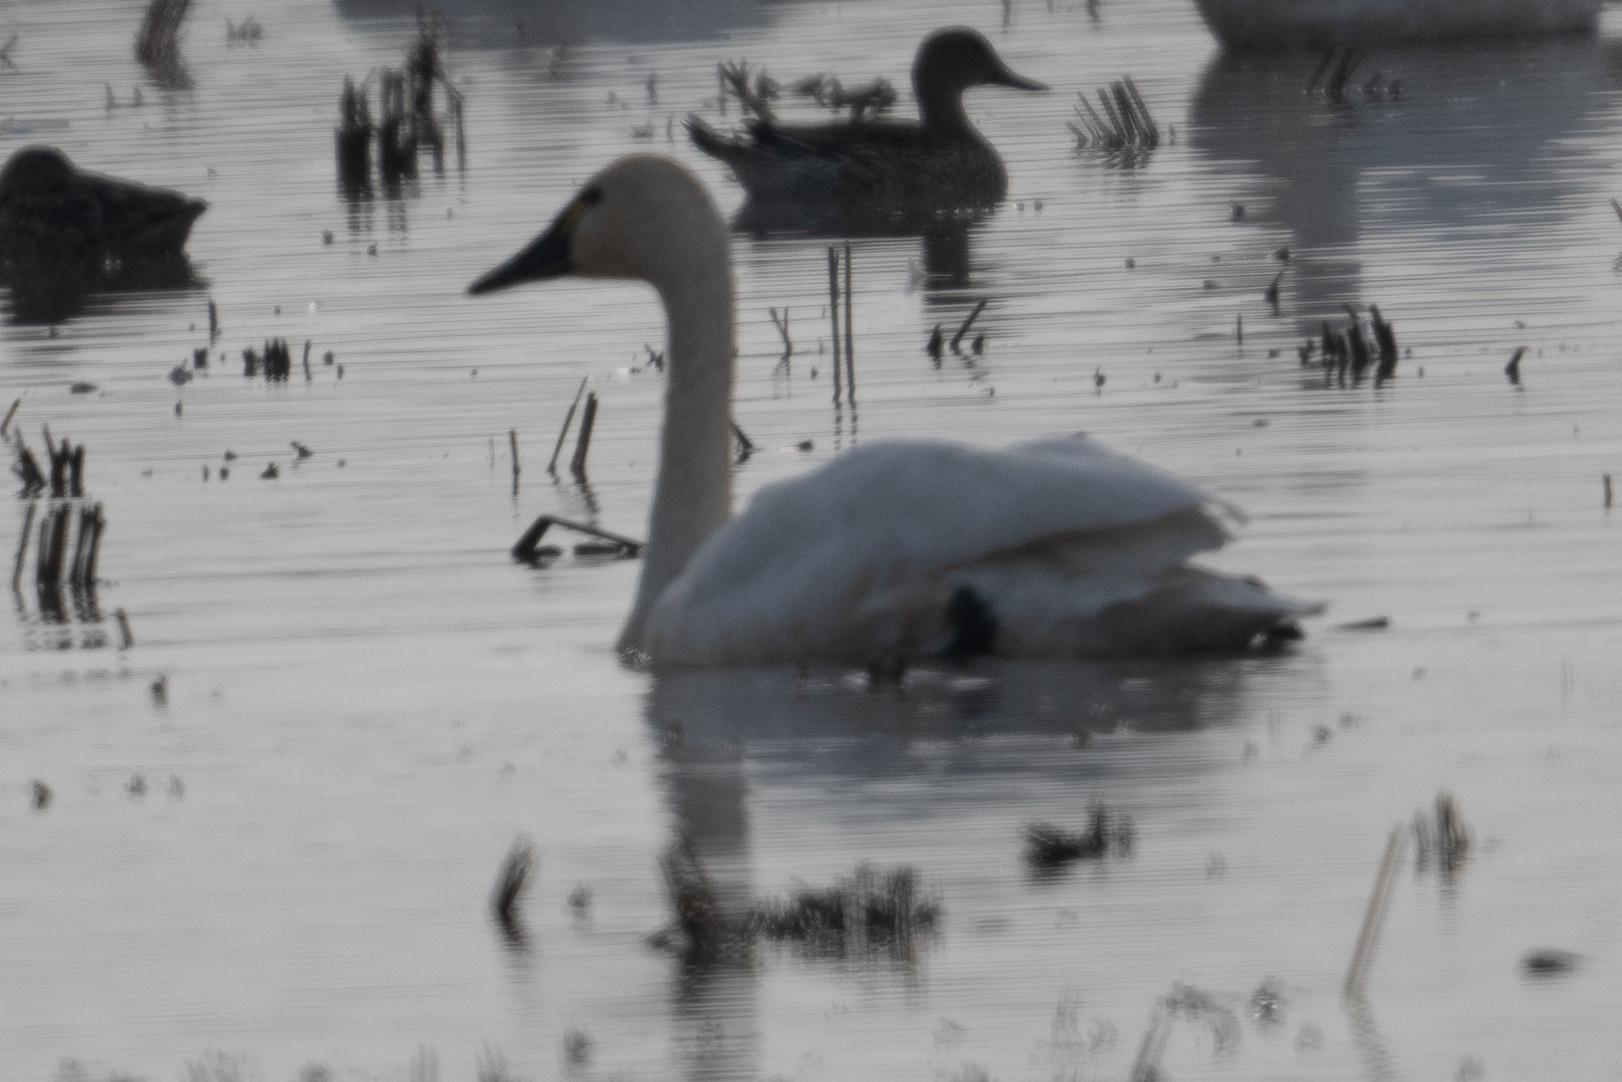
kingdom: Animalia
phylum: Chordata
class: Aves
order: Anseriformes
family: Anatidae
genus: Cygnus
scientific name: Cygnus columbianus
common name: Tundra swan
